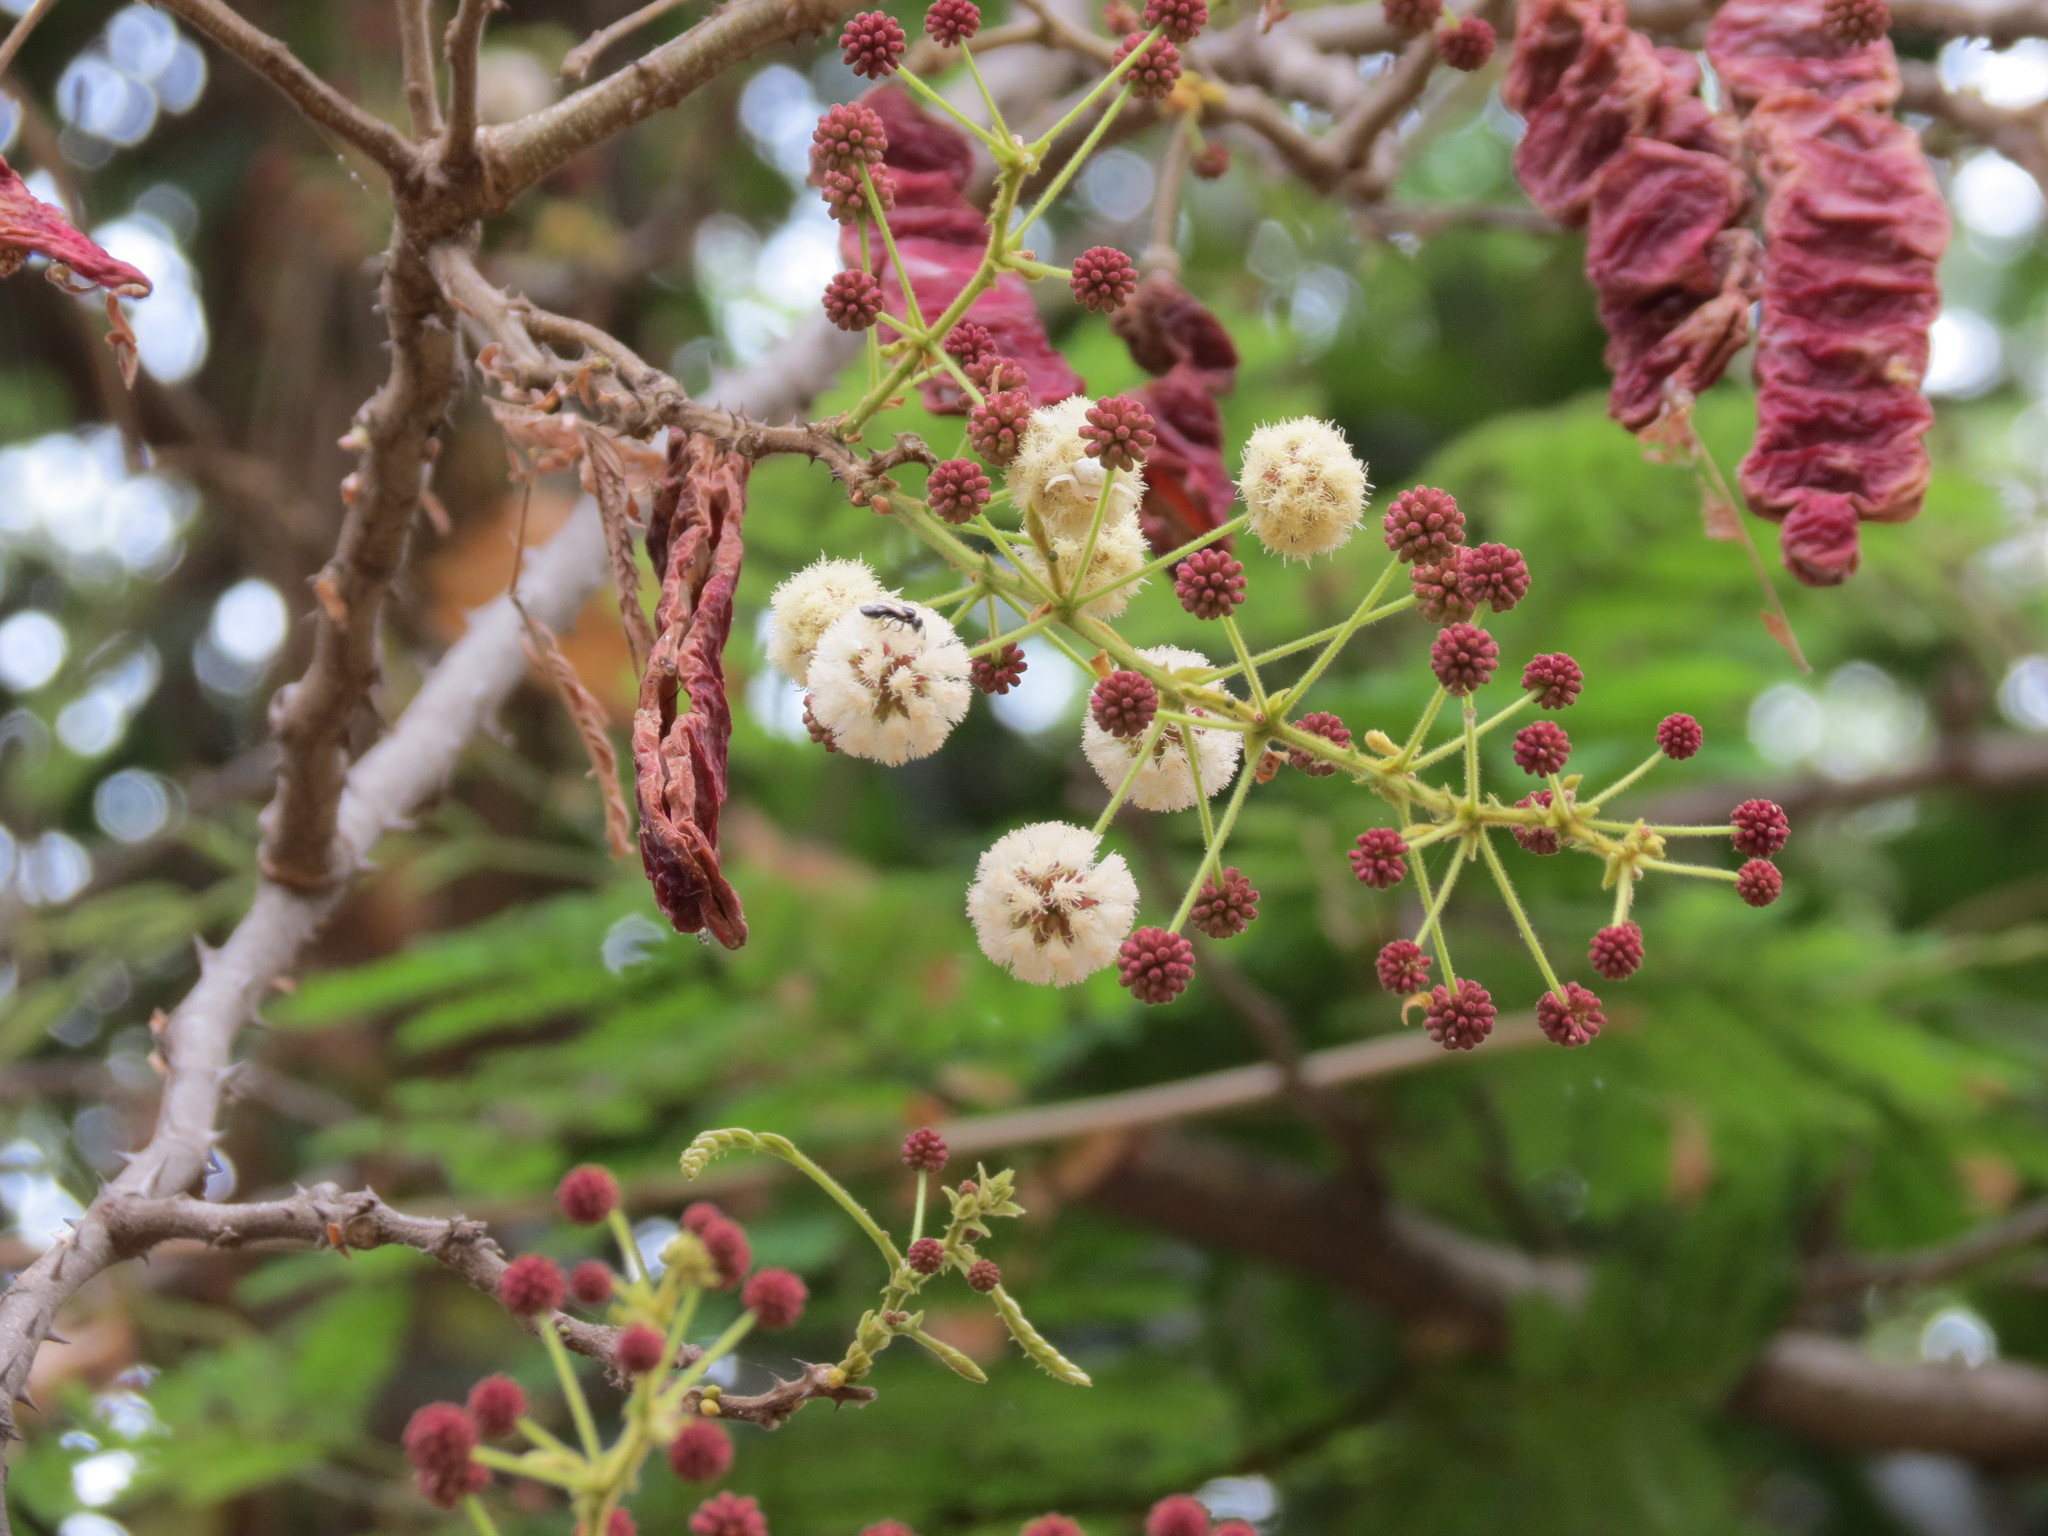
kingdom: Plantae
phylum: Tracheophyta
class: Magnoliopsida
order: Fabales
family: Fabaceae
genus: Senegalia
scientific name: Senegalia rugata
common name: Soap-pod
